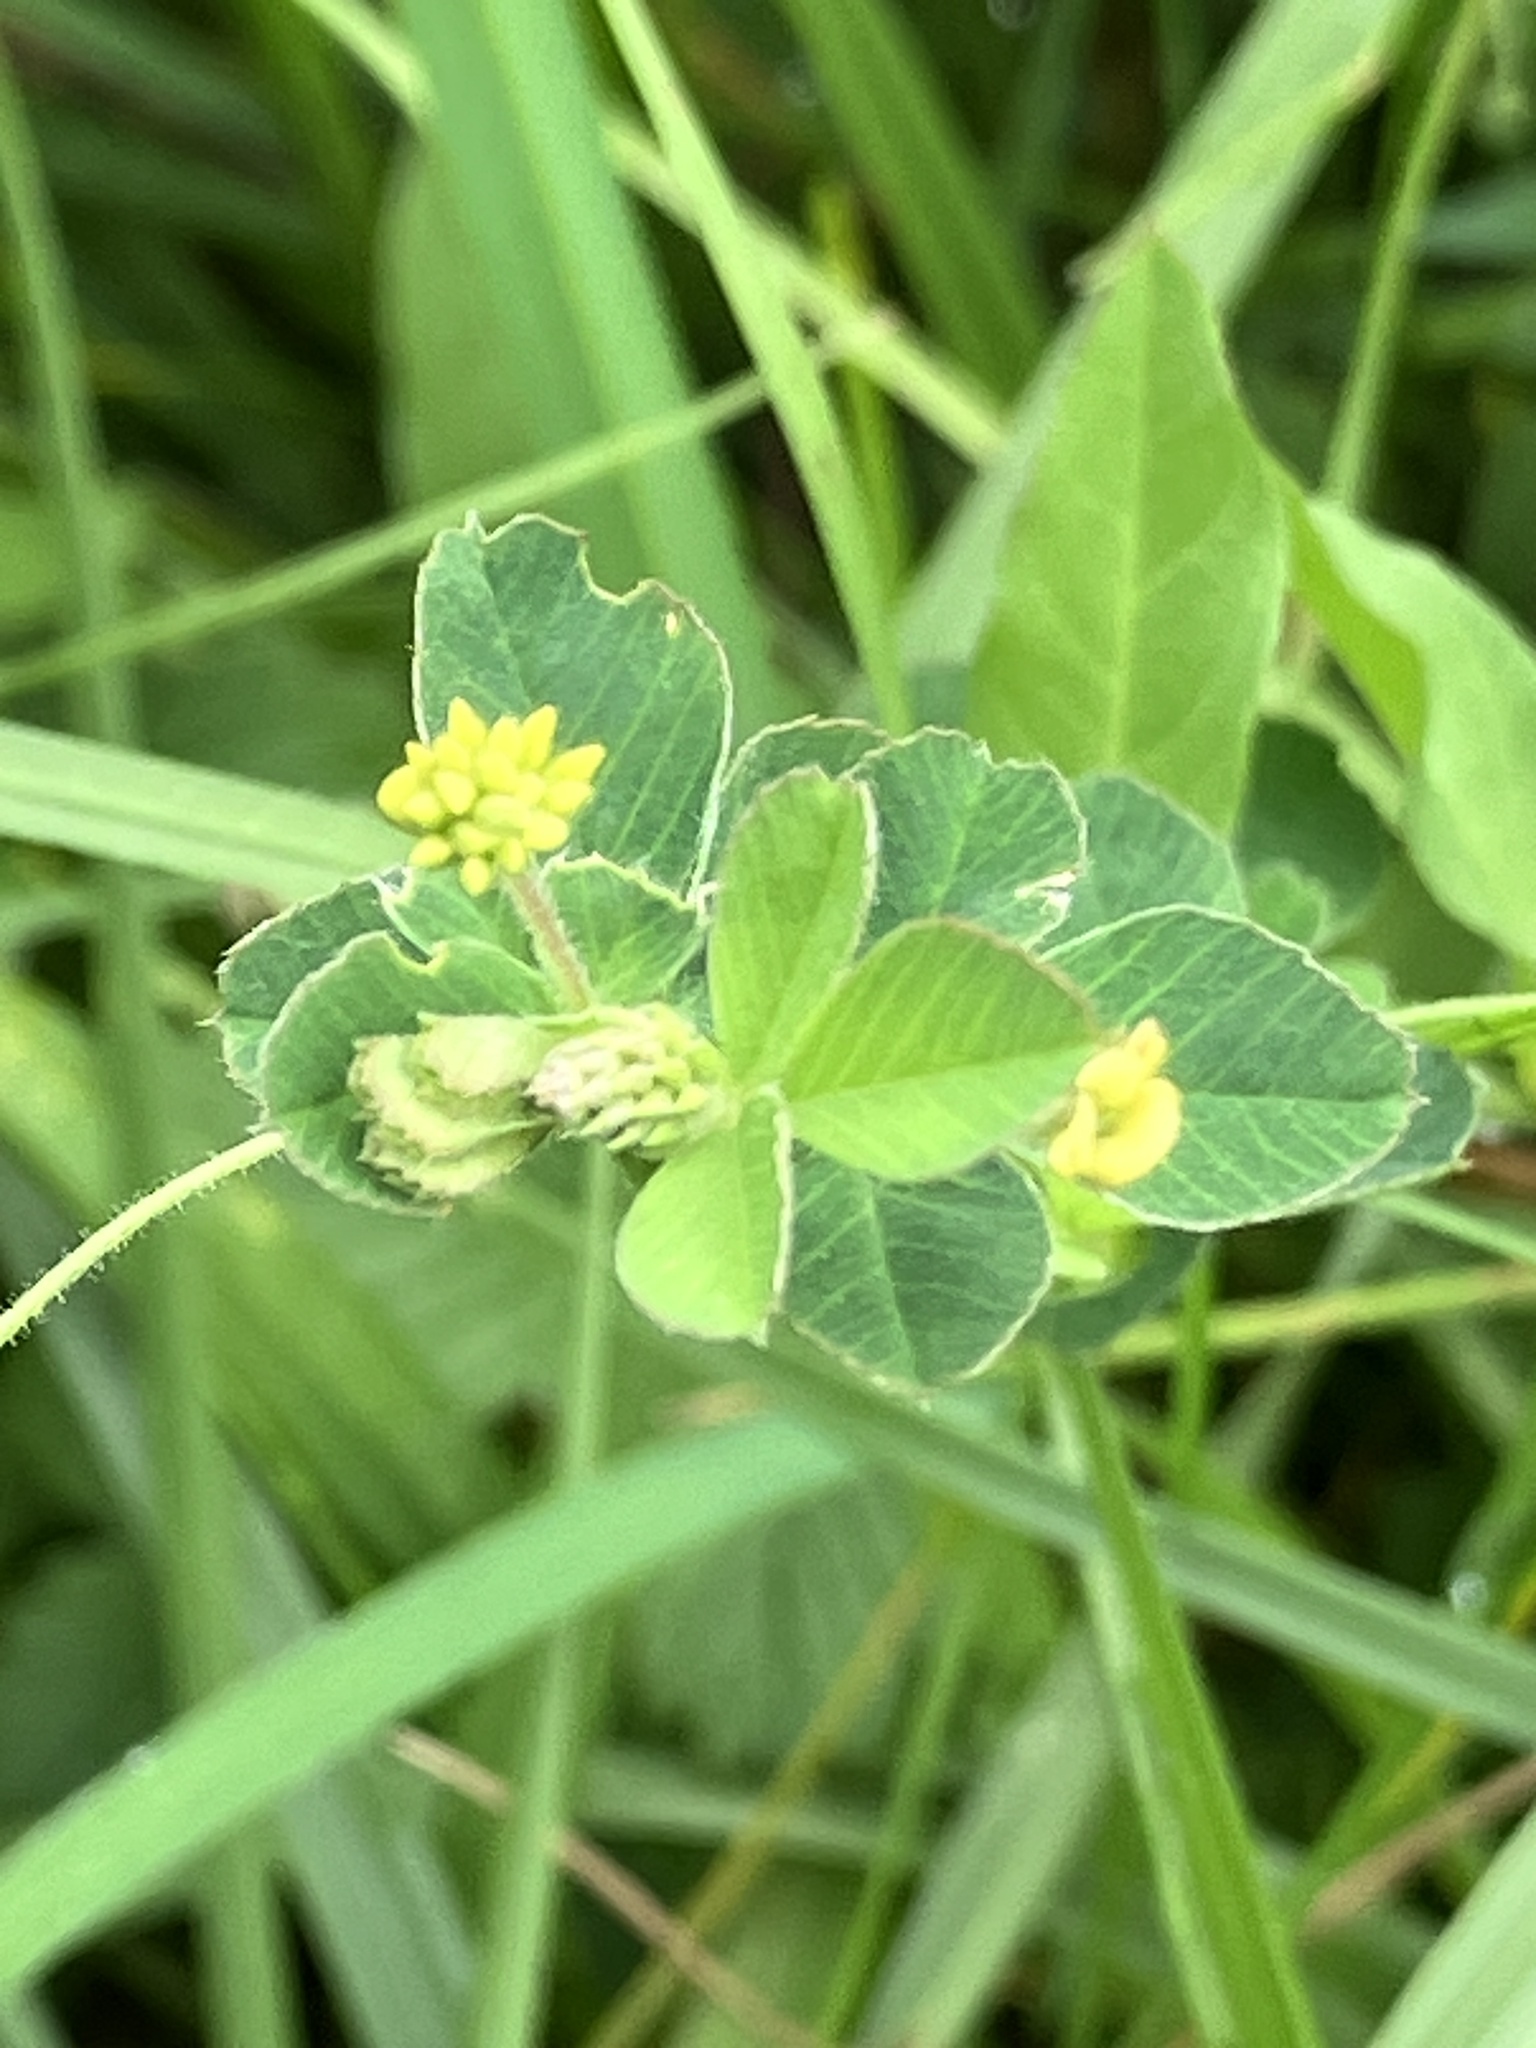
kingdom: Plantae
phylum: Tracheophyta
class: Magnoliopsida
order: Fabales
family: Fabaceae
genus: Medicago
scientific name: Medicago lupulina
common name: Black medick
